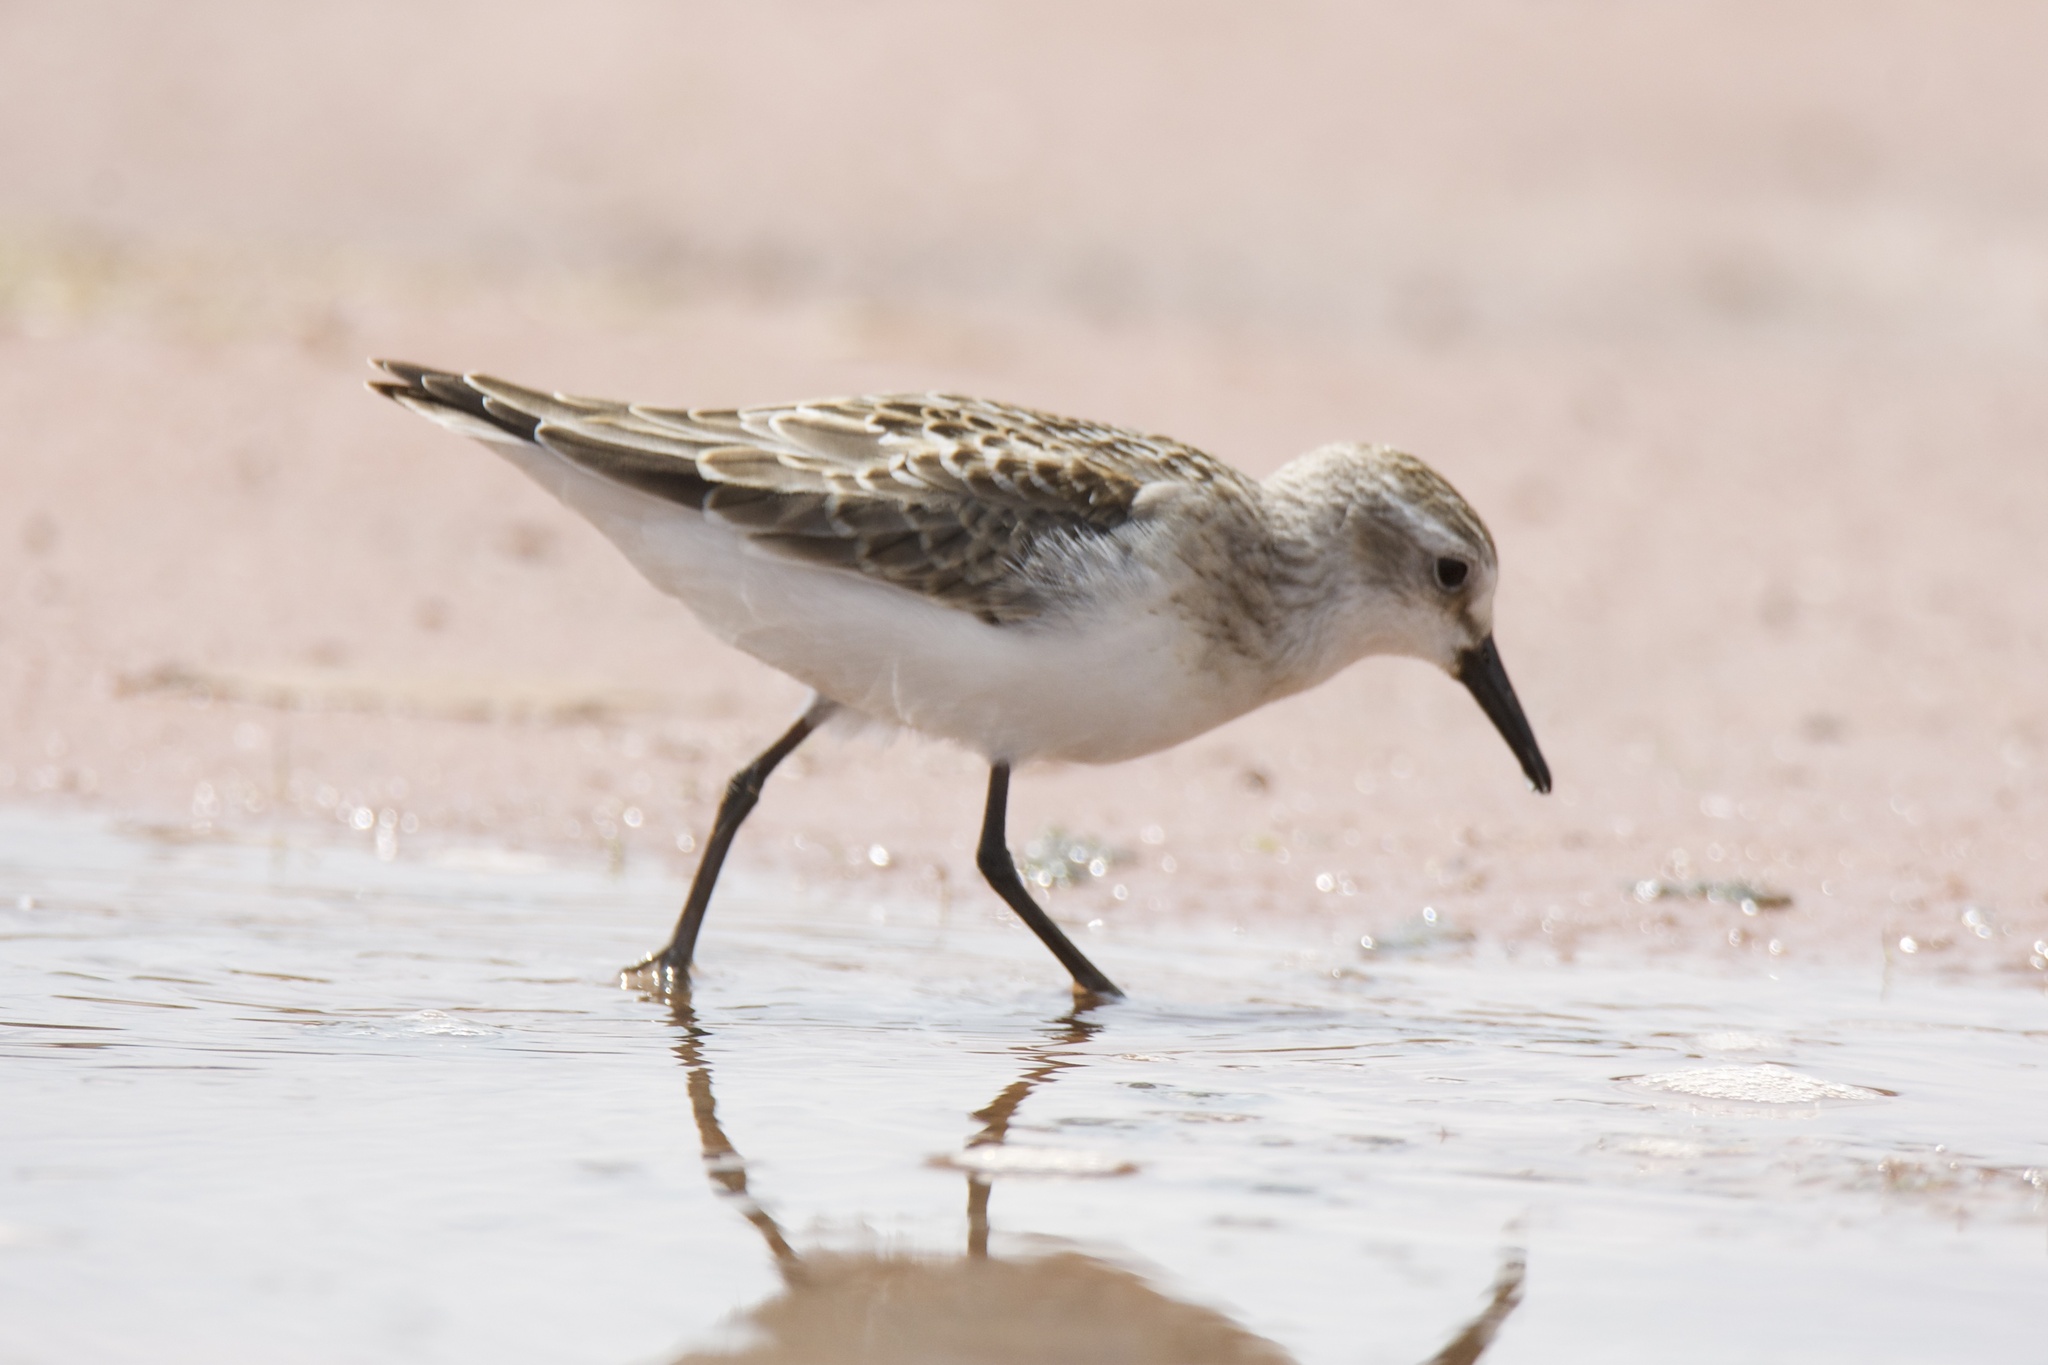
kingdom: Animalia
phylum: Chordata
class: Aves
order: Charadriiformes
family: Scolopacidae
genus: Calidris
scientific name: Calidris pusilla
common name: Semipalmated sandpiper
